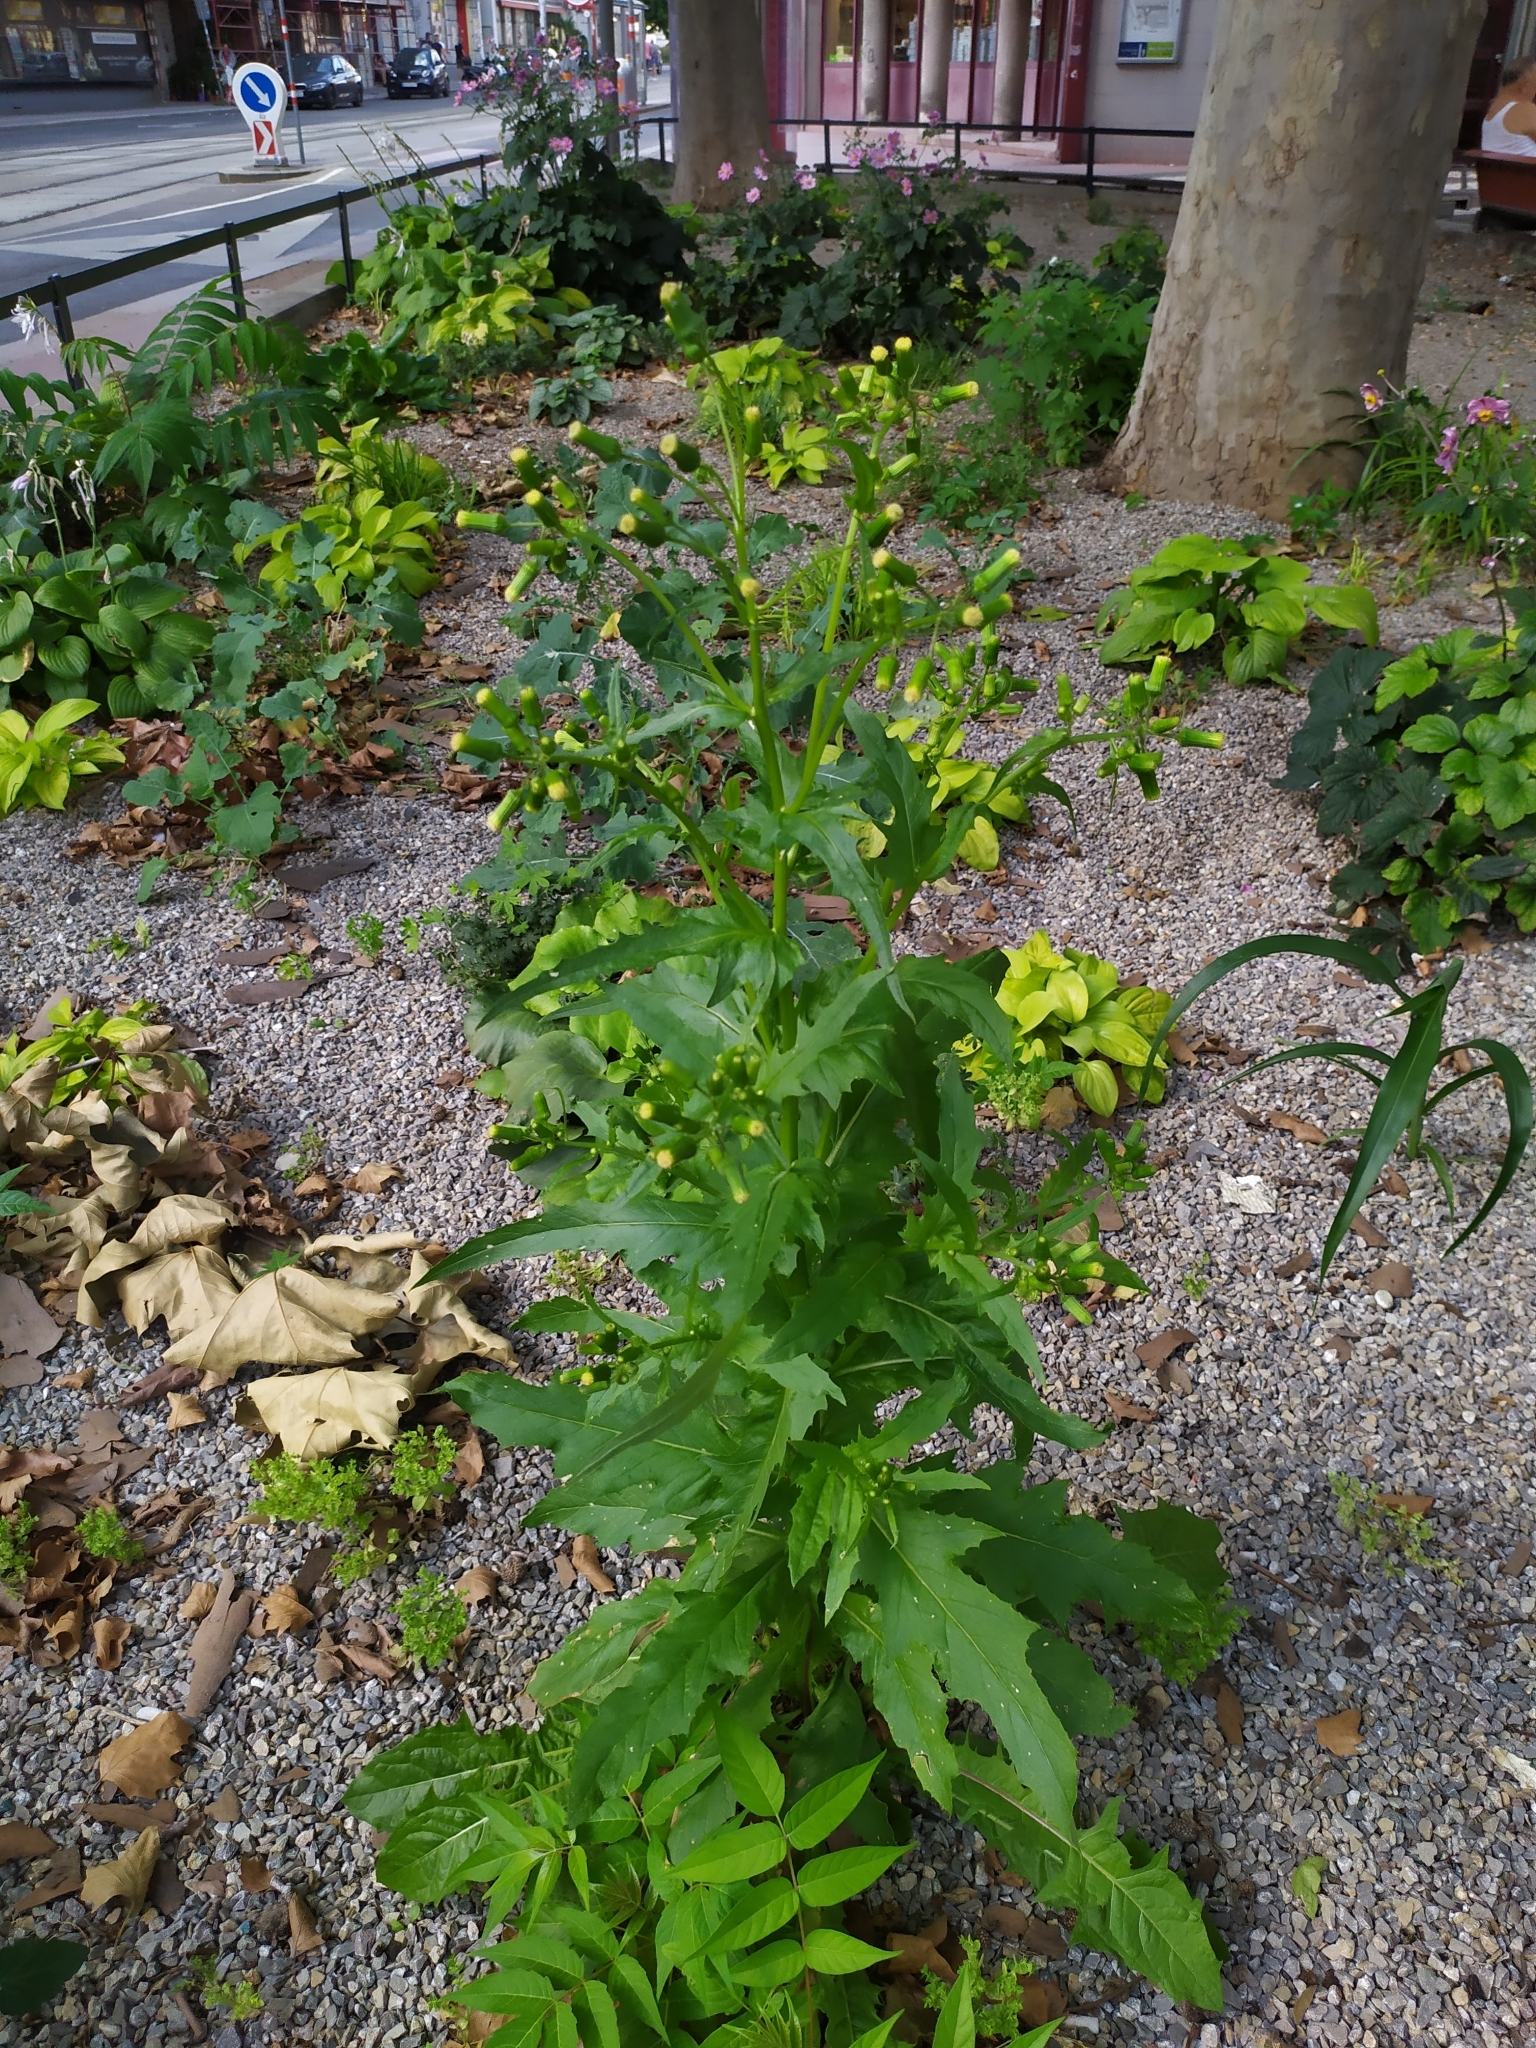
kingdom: Plantae
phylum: Tracheophyta
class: Magnoliopsida
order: Asterales
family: Asteraceae
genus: Erechtites
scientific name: Erechtites hieraciifolius
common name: American burnweed
